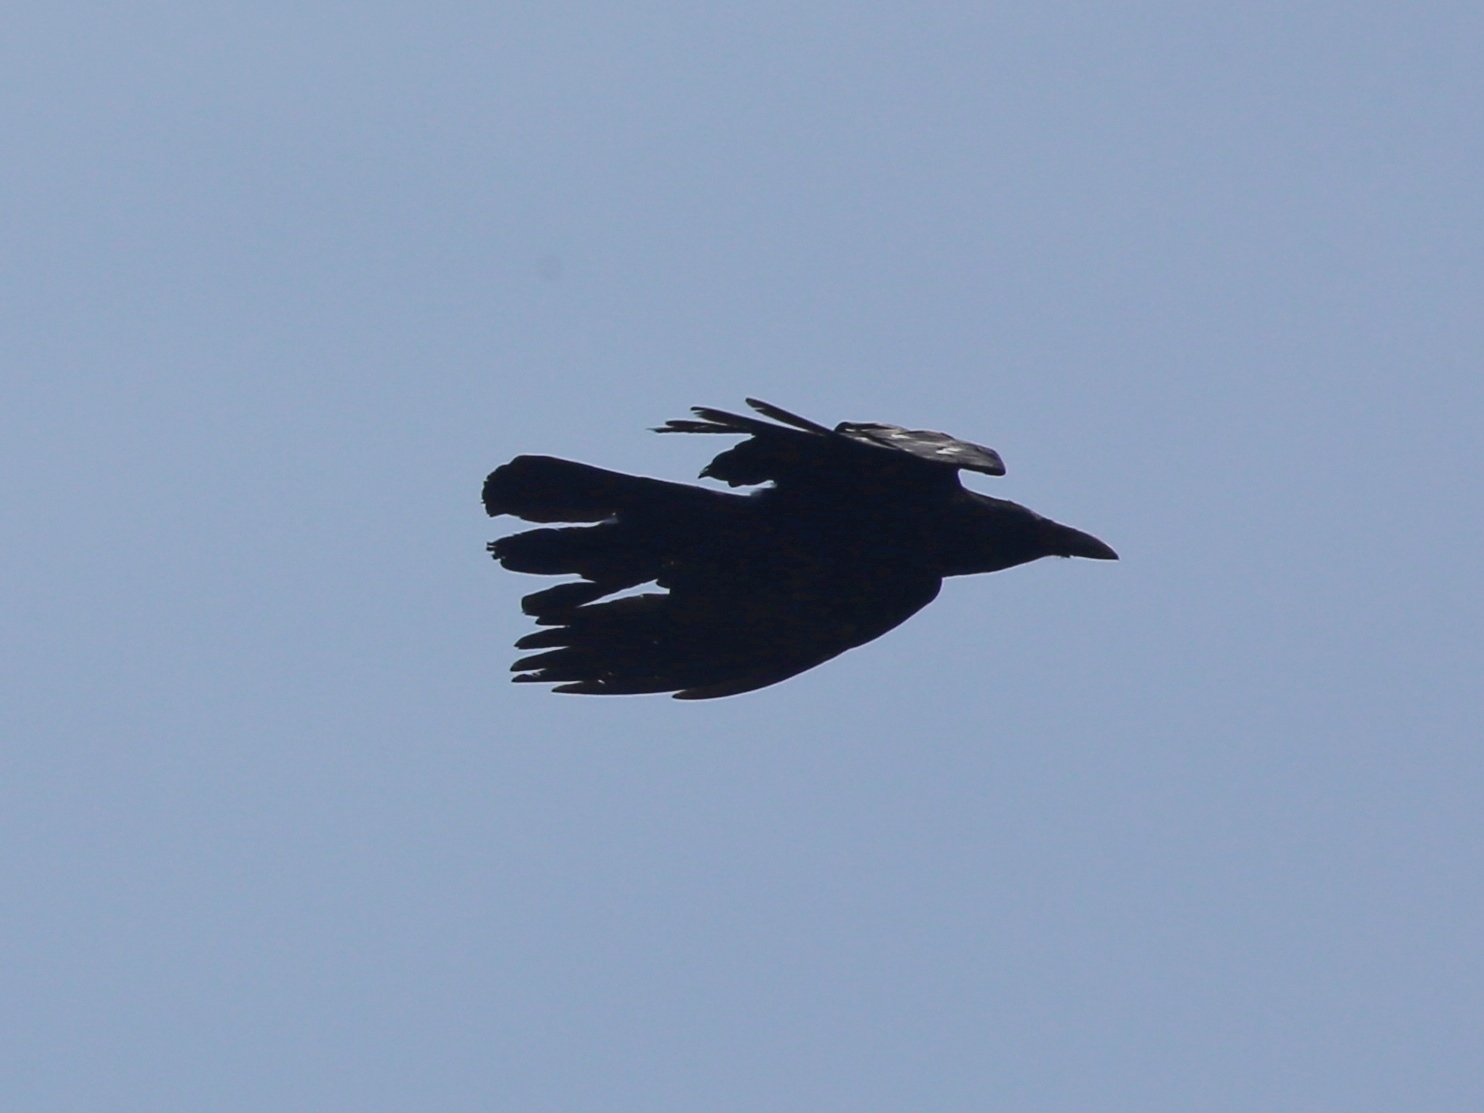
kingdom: Animalia
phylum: Chordata
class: Aves
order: Passeriformes
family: Corvidae
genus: Corvus
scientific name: Corvus corone
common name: Carrion crow
